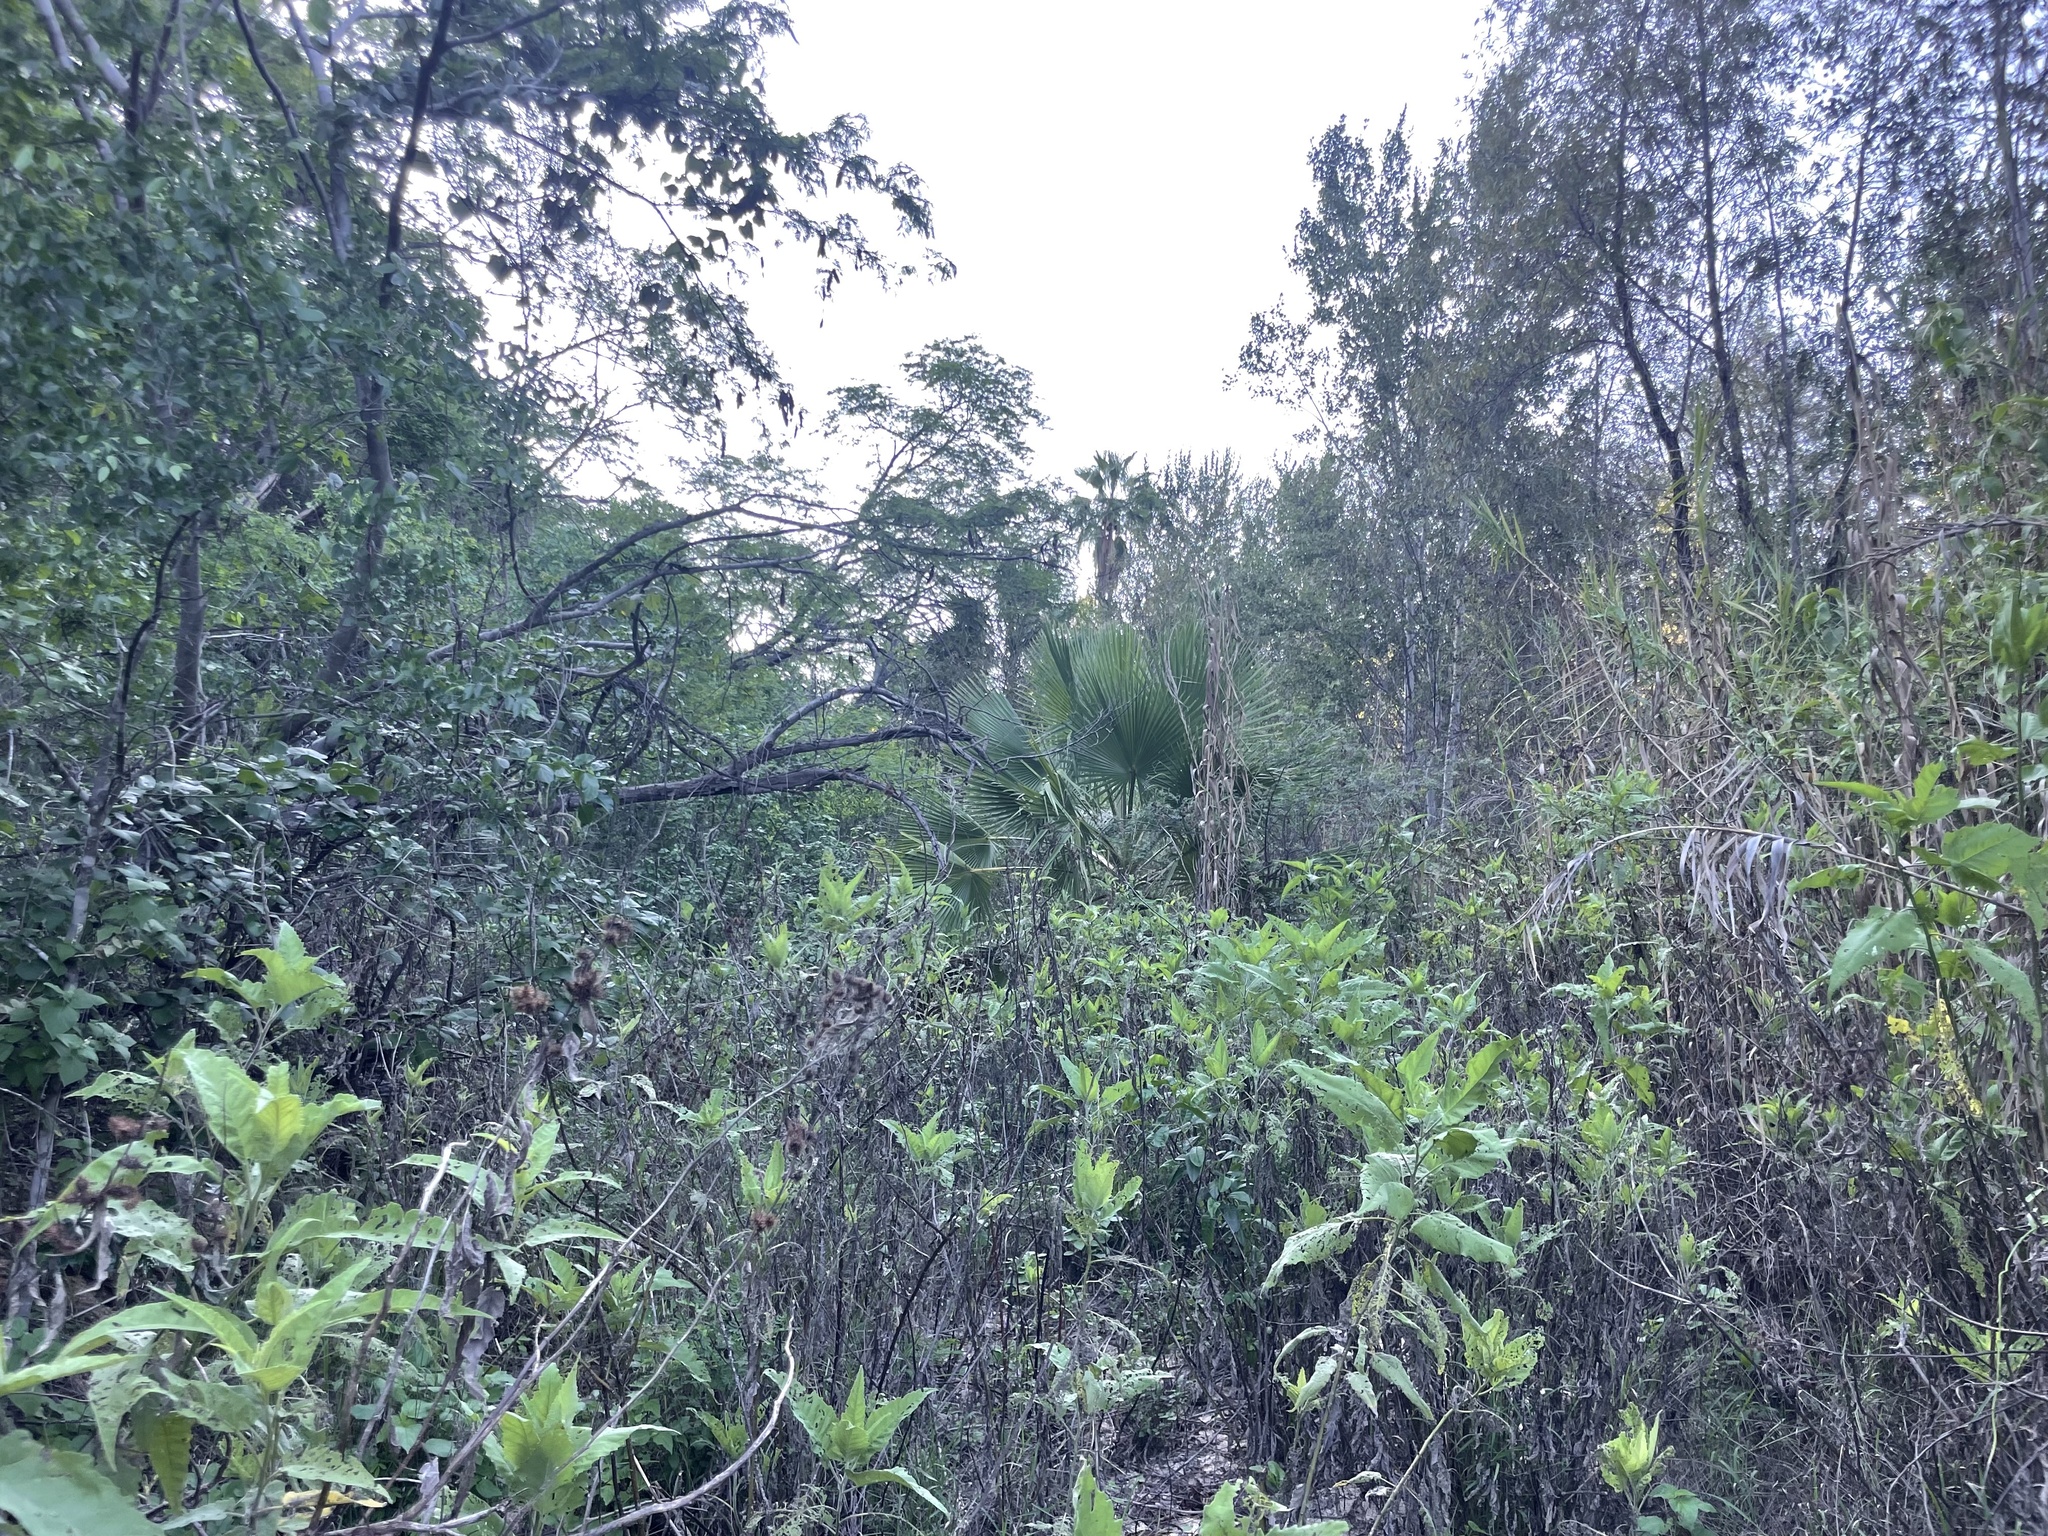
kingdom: Plantae
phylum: Tracheophyta
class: Magnoliopsida
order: Asterales
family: Asteraceae
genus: Ambrosia
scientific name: Ambrosia ambrosioides
